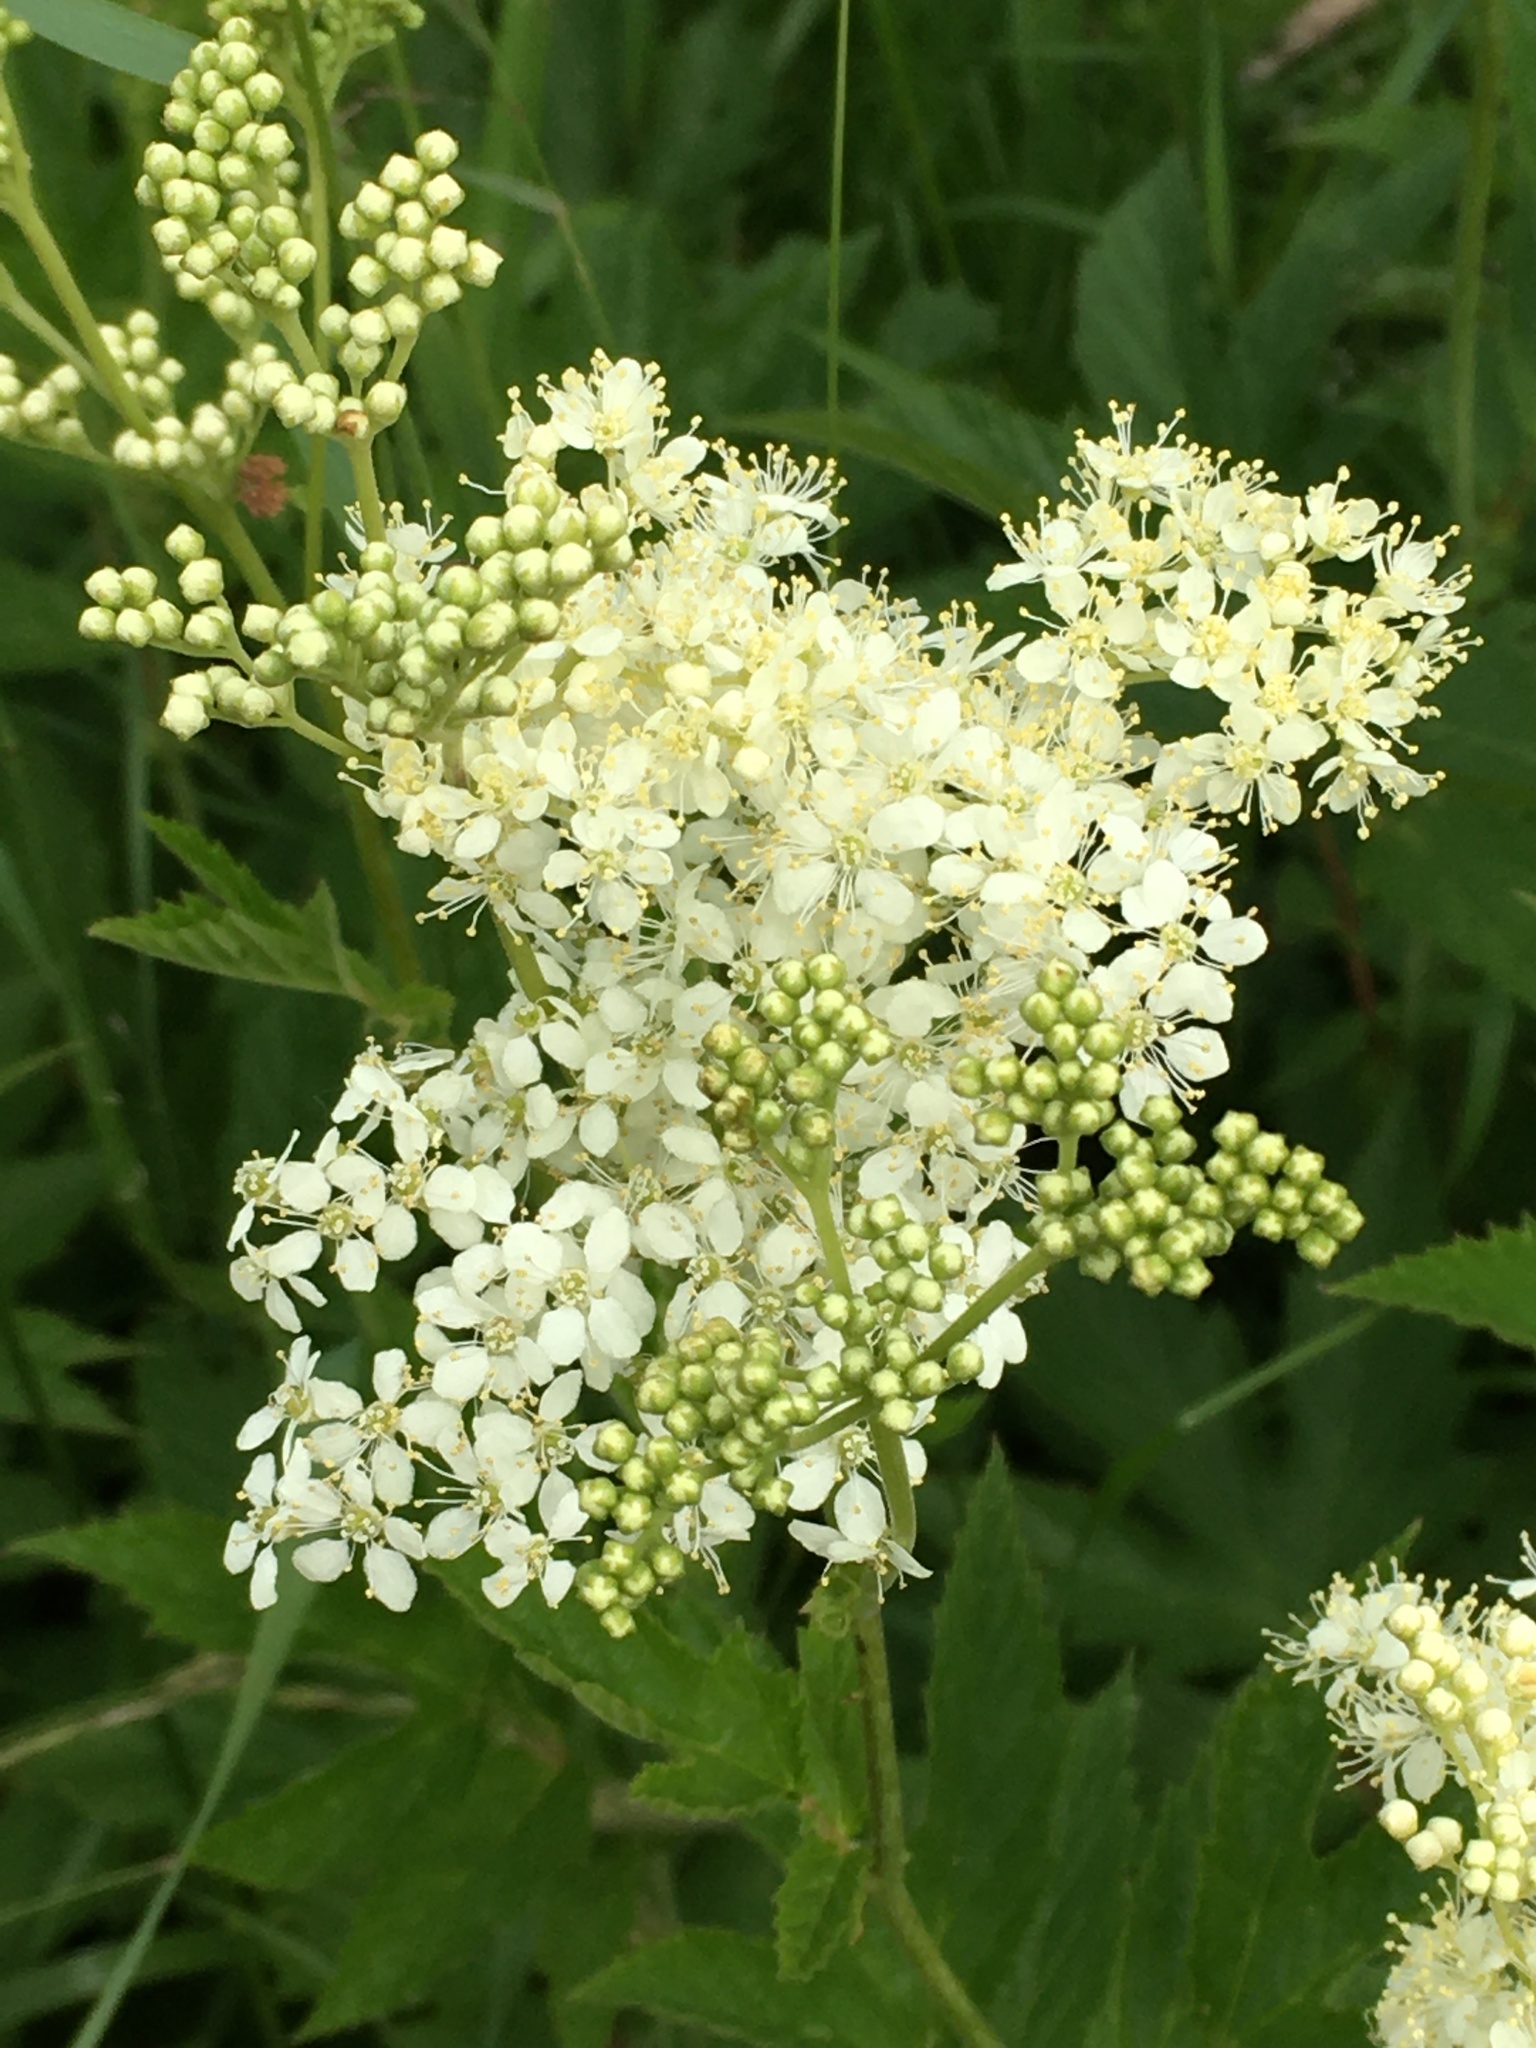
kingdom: Plantae
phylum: Tracheophyta
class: Magnoliopsida
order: Rosales
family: Rosaceae
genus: Filipendula
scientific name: Filipendula ulmaria
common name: Meadowsweet
